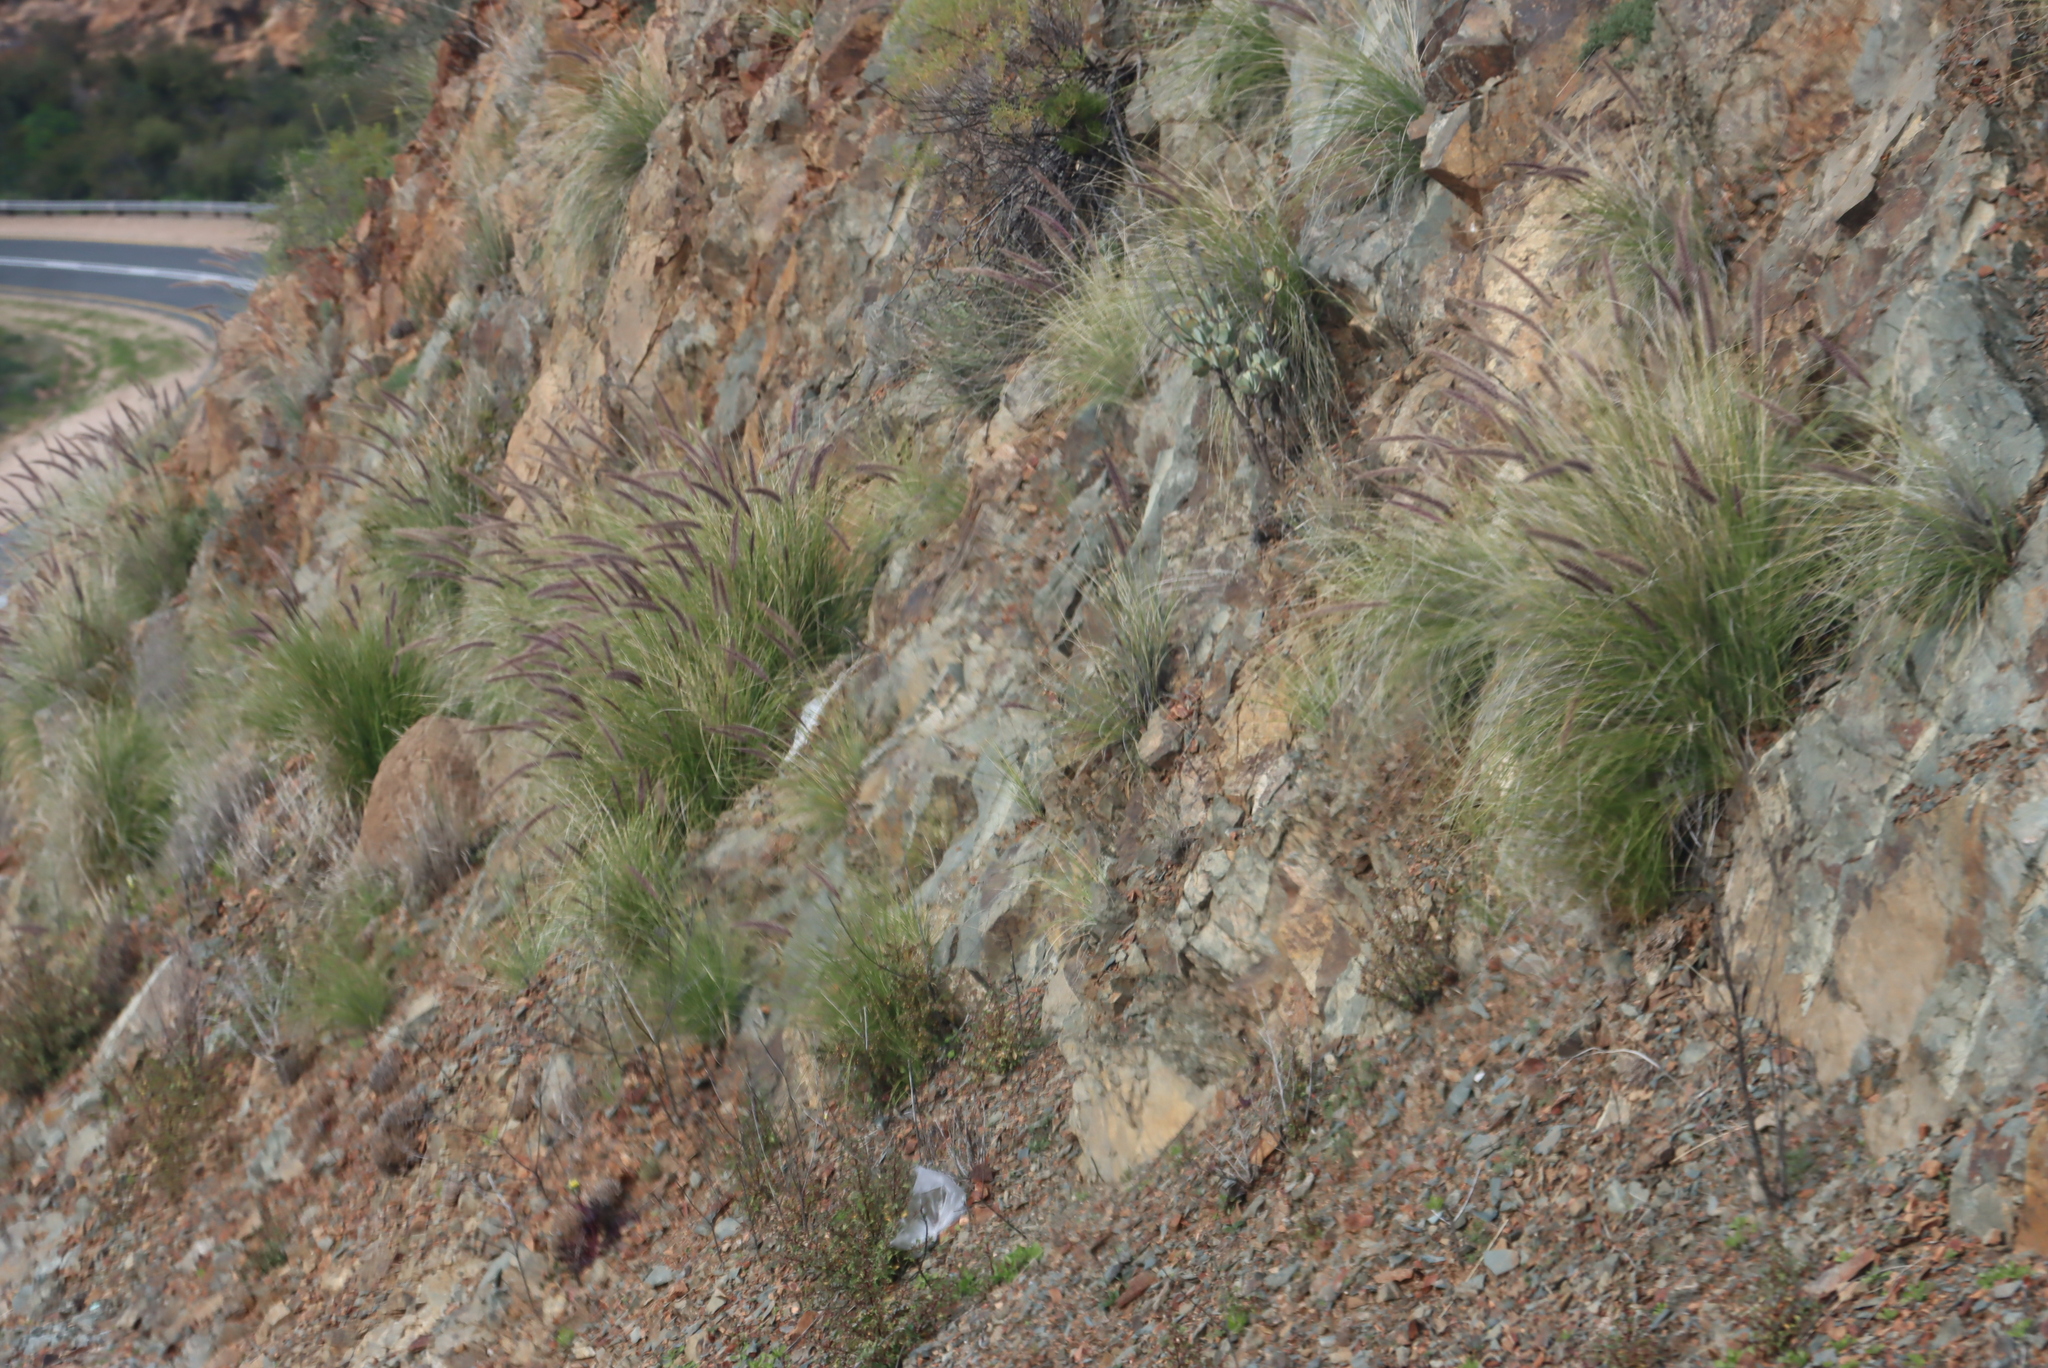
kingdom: Plantae
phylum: Tracheophyta
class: Liliopsida
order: Poales
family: Poaceae
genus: Cenchrus
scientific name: Cenchrus setaceus
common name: Crimson fountaingrass
